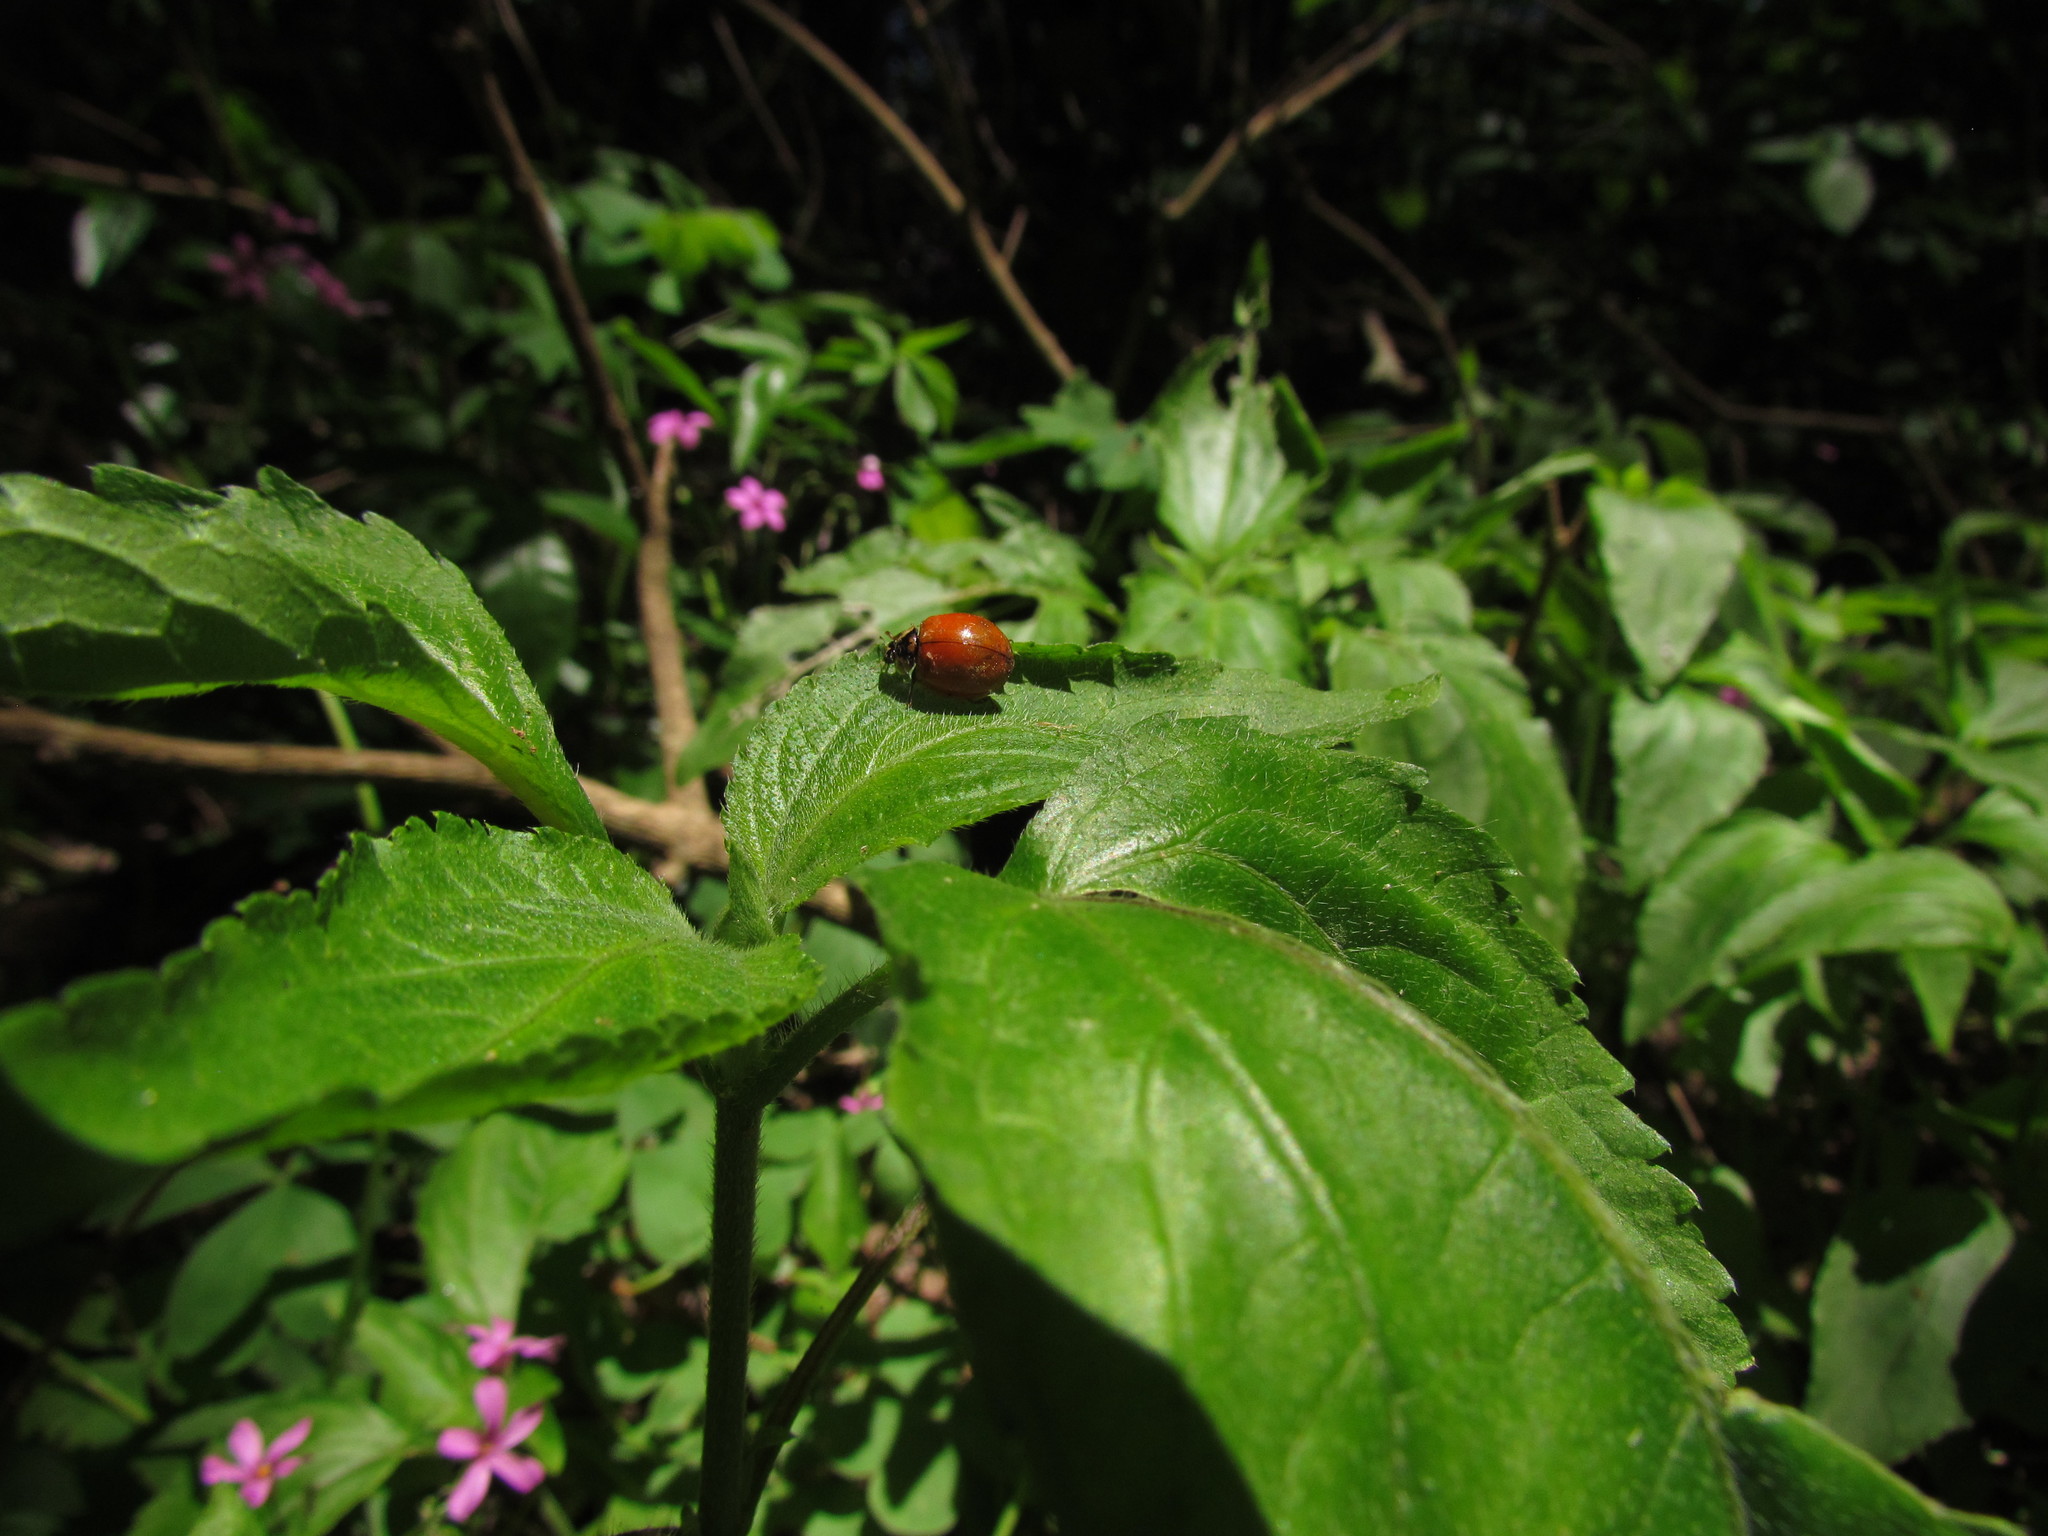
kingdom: Animalia
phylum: Arthropoda
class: Insecta
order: Coleoptera
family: Coccinellidae
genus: Harmonia
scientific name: Harmonia axyridis
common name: Harlequin ladybird
